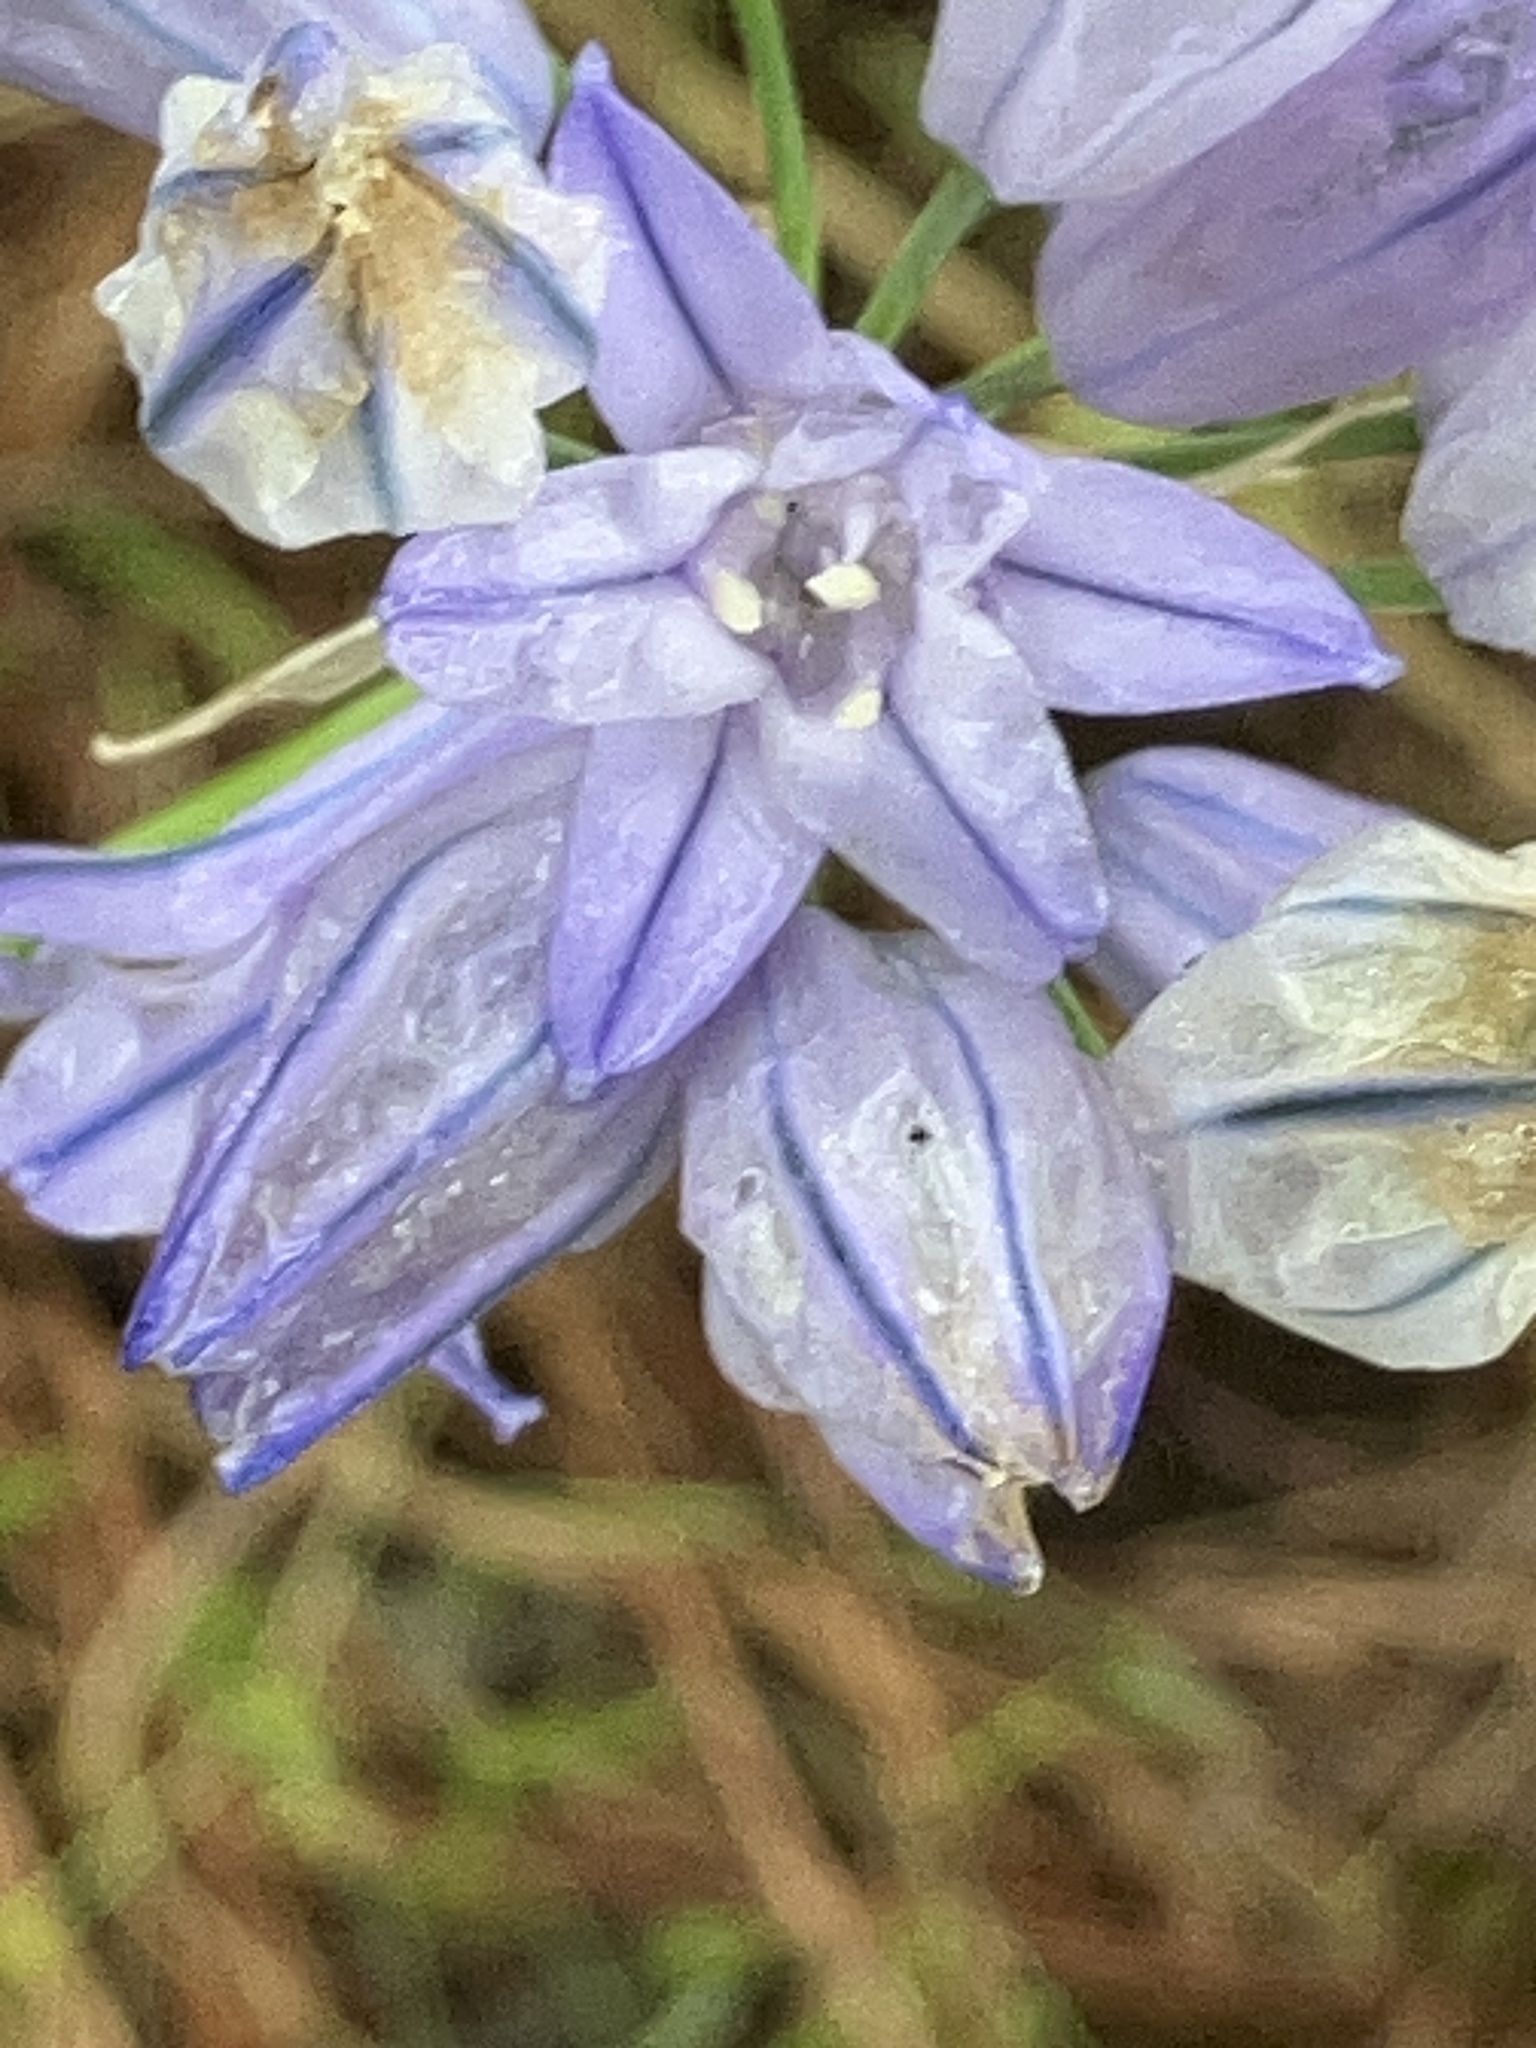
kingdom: Plantae
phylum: Tracheophyta
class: Liliopsida
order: Asparagales
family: Asparagaceae
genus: Triteleia
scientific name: Triteleia grandiflora
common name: Wild hyacinth
